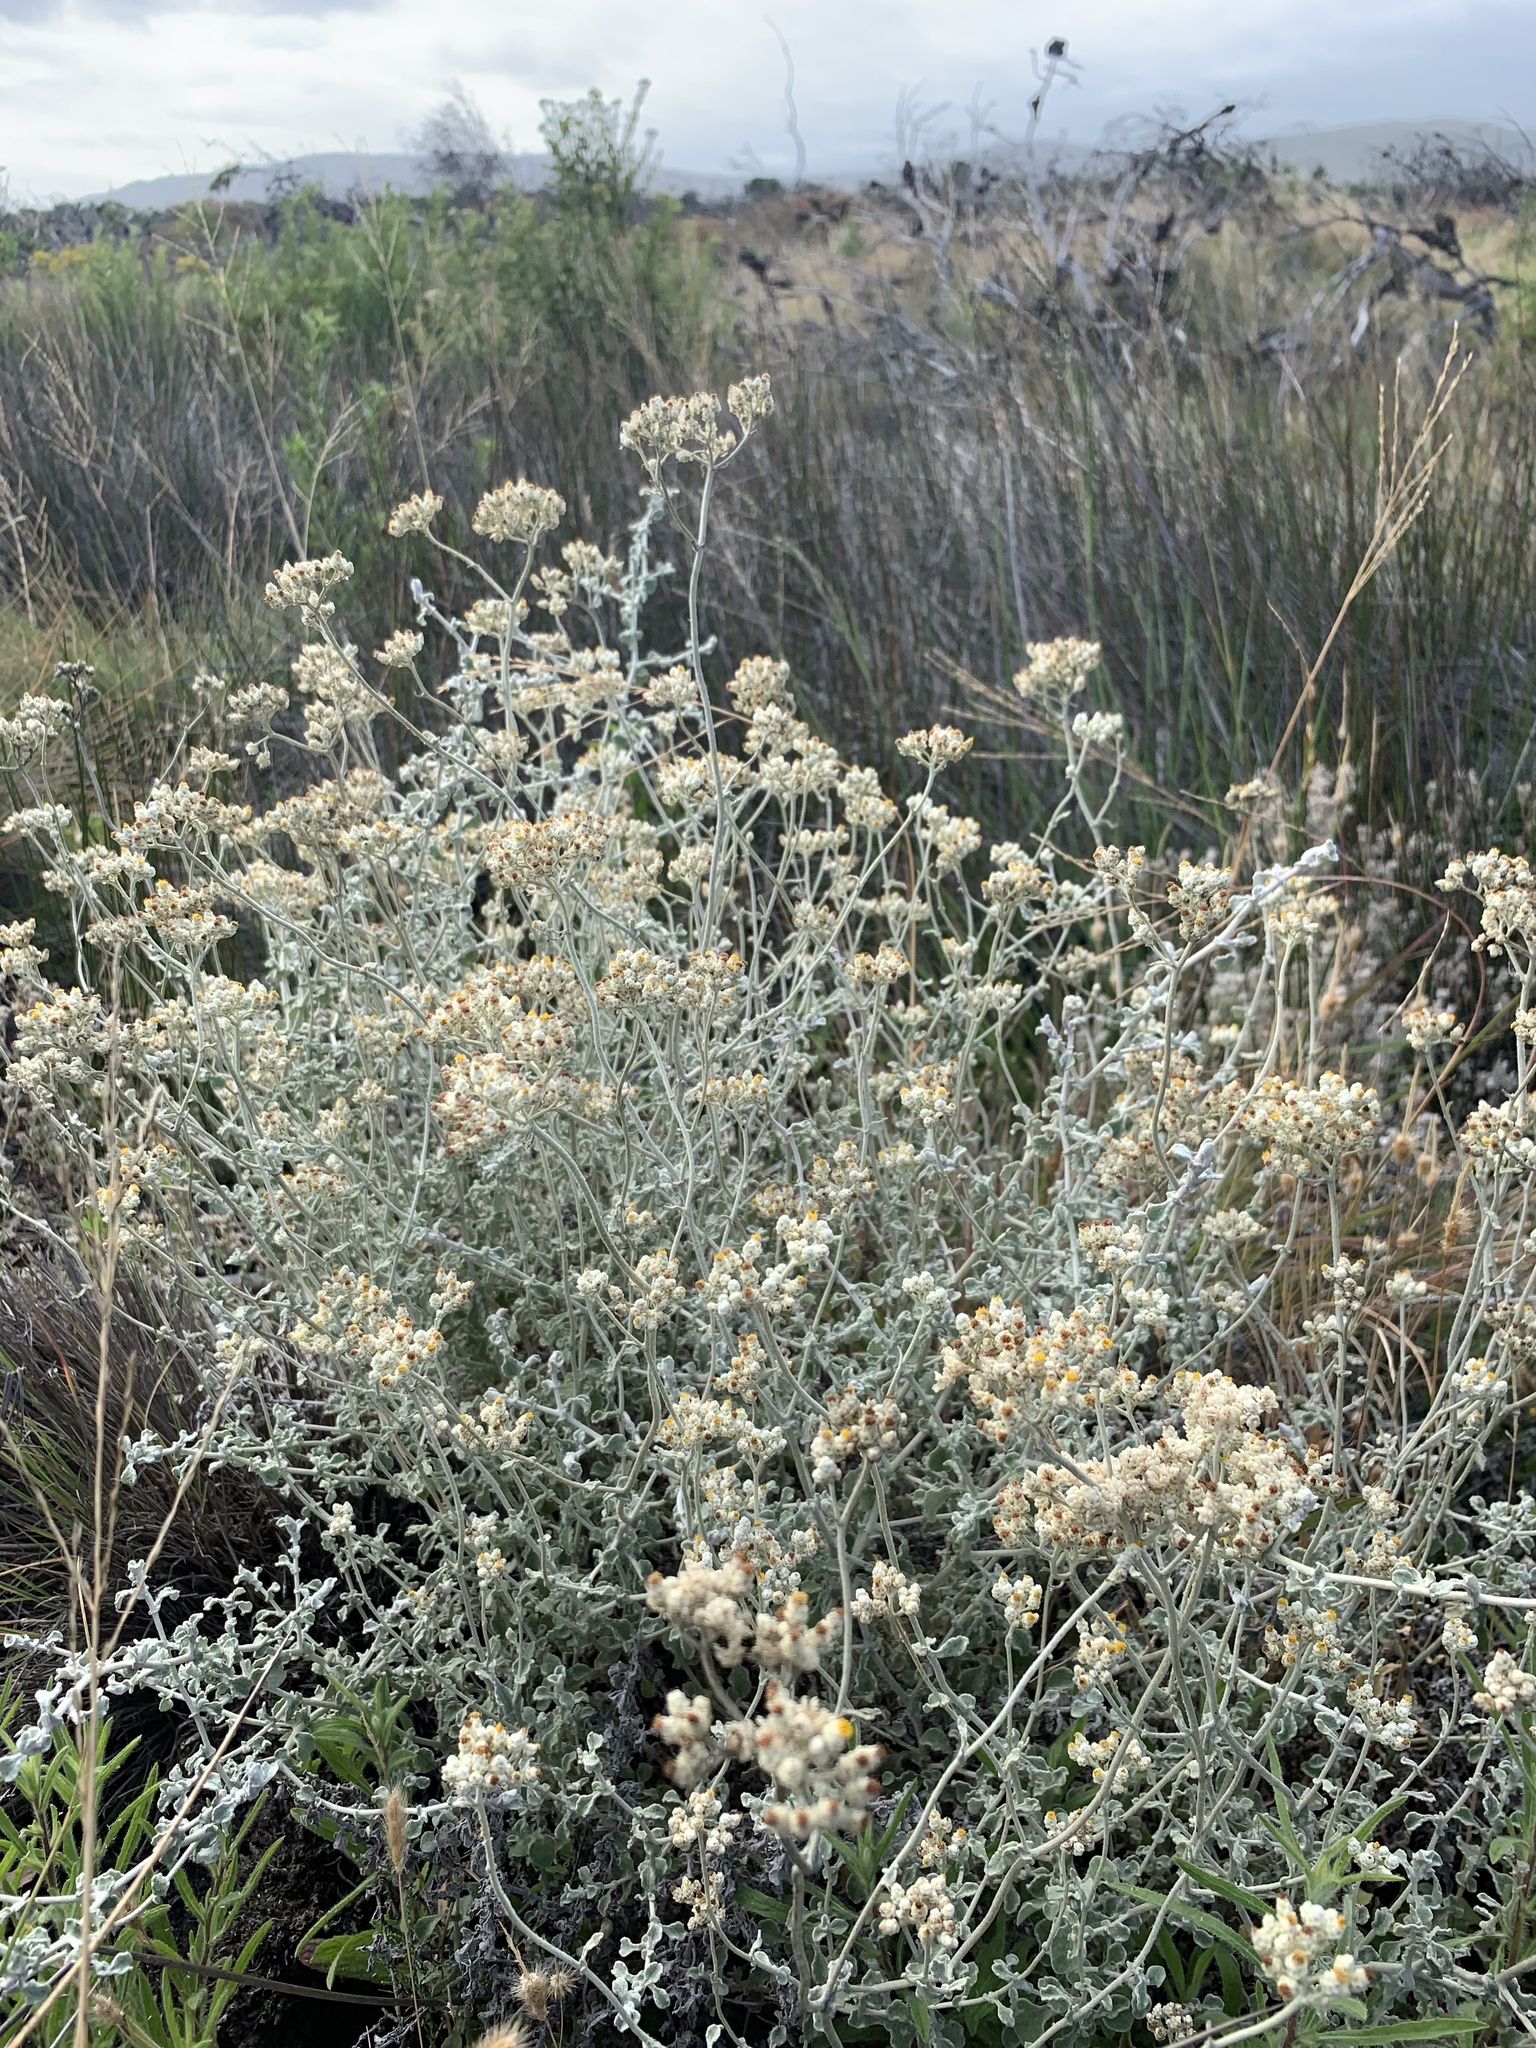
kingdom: Plantae
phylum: Tracheophyta
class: Magnoliopsida
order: Asterales
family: Asteraceae
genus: Helichrysum
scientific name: Helichrysum patulum
